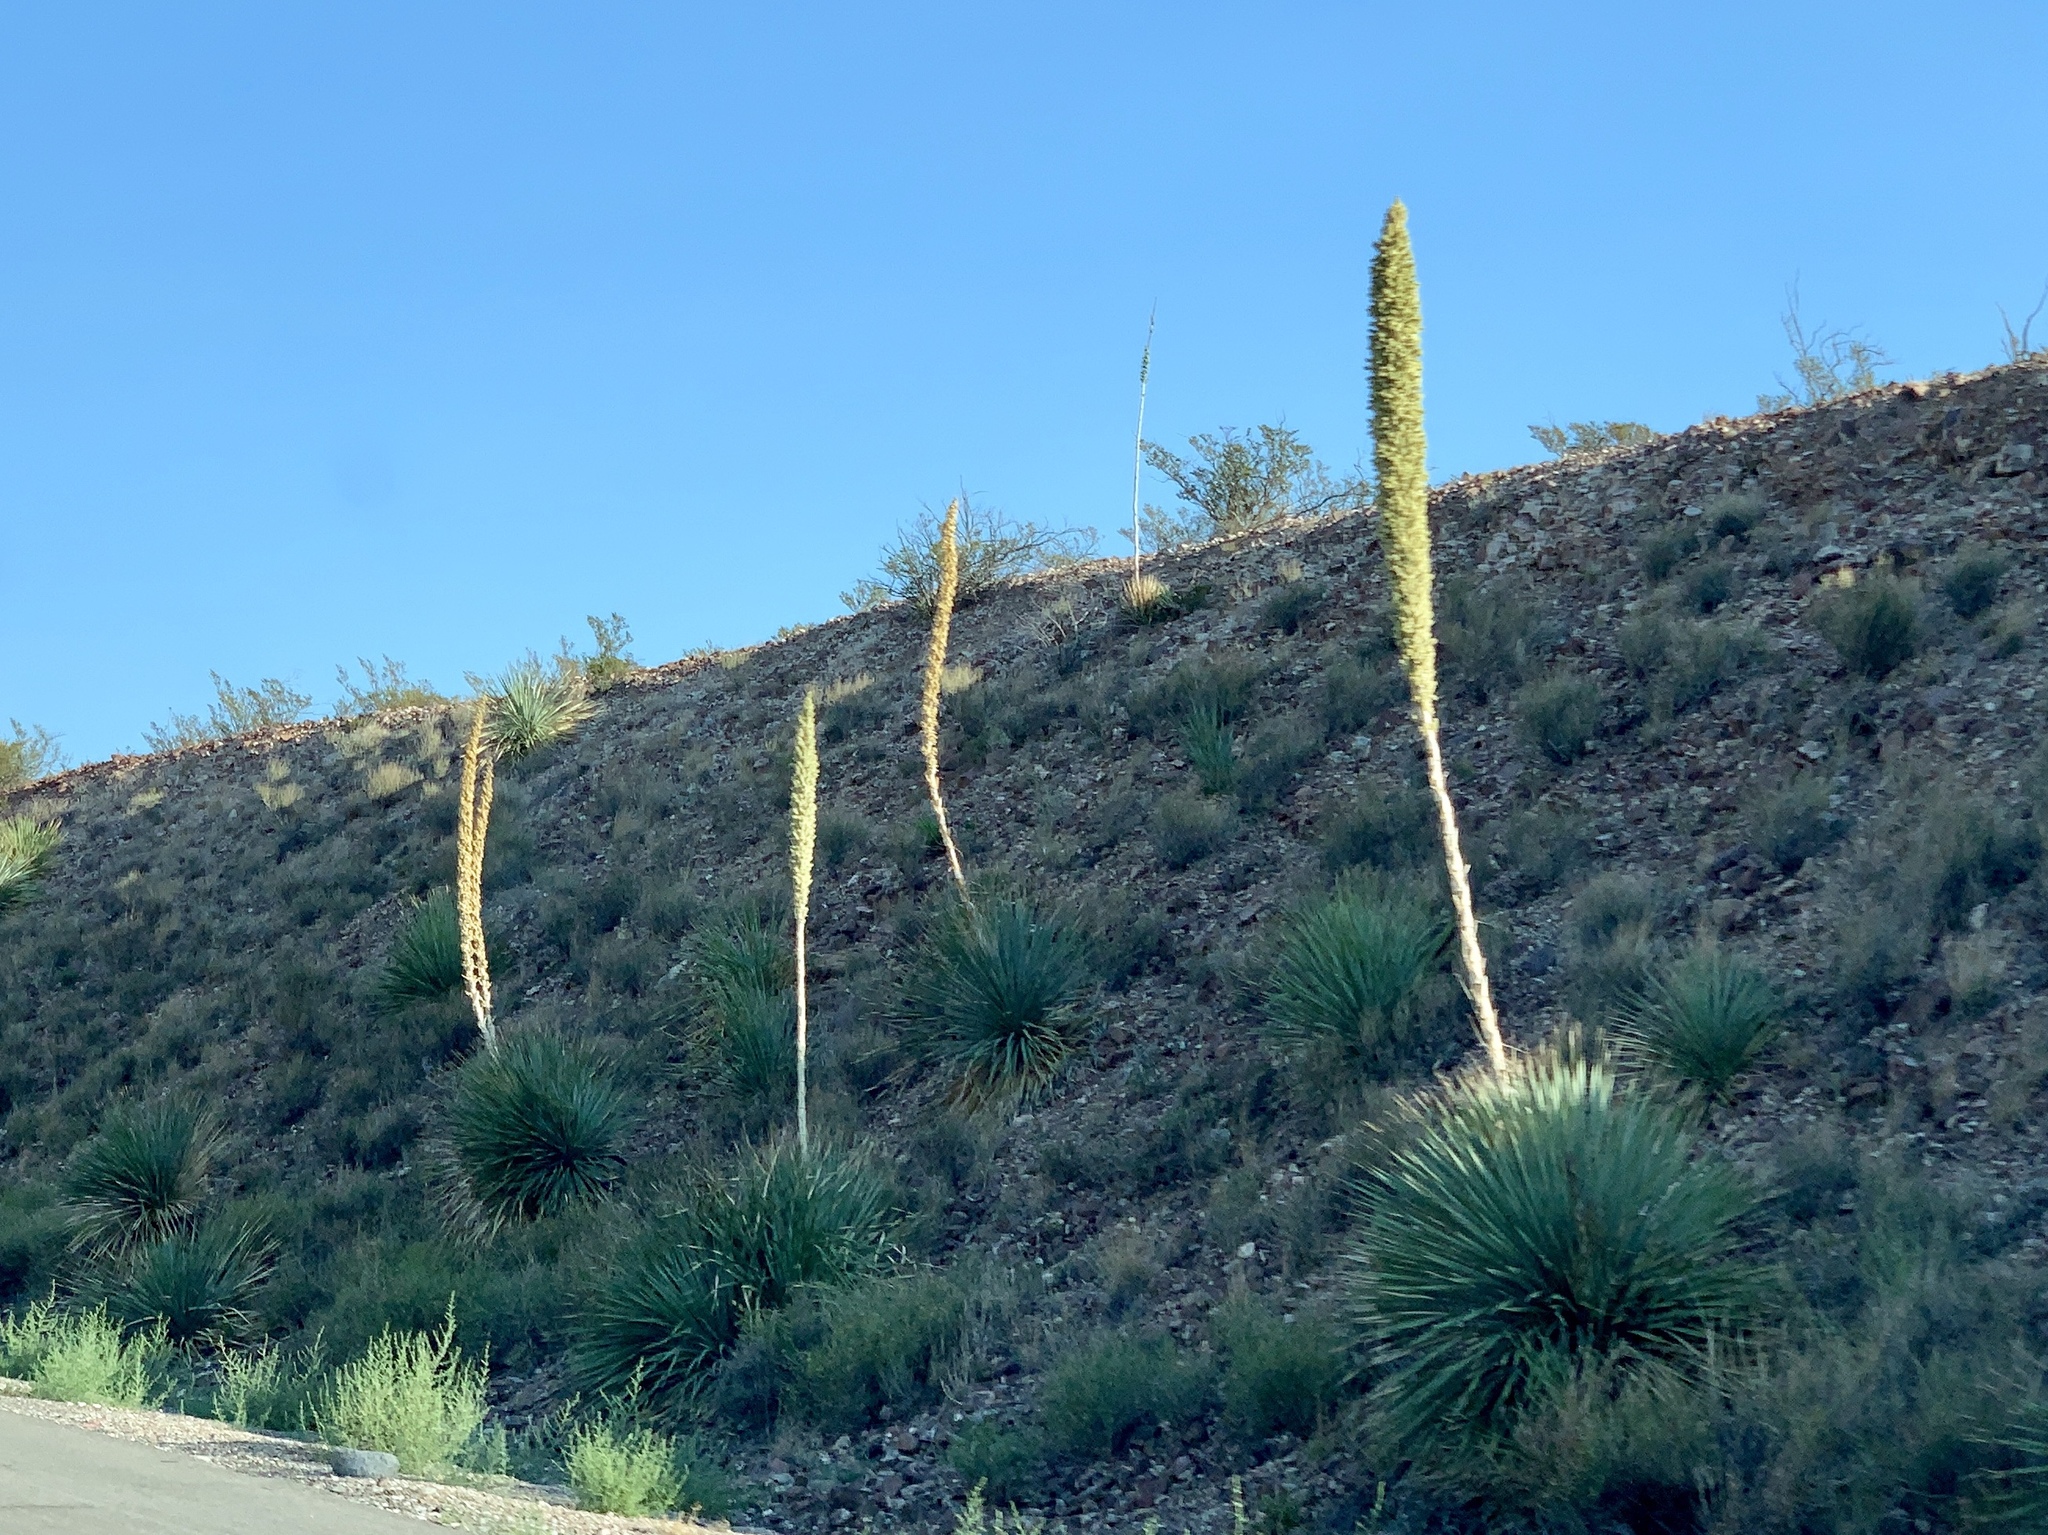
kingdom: Plantae
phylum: Tracheophyta
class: Liliopsida
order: Asparagales
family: Asparagaceae
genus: Dasylirion
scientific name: Dasylirion wheeleri
